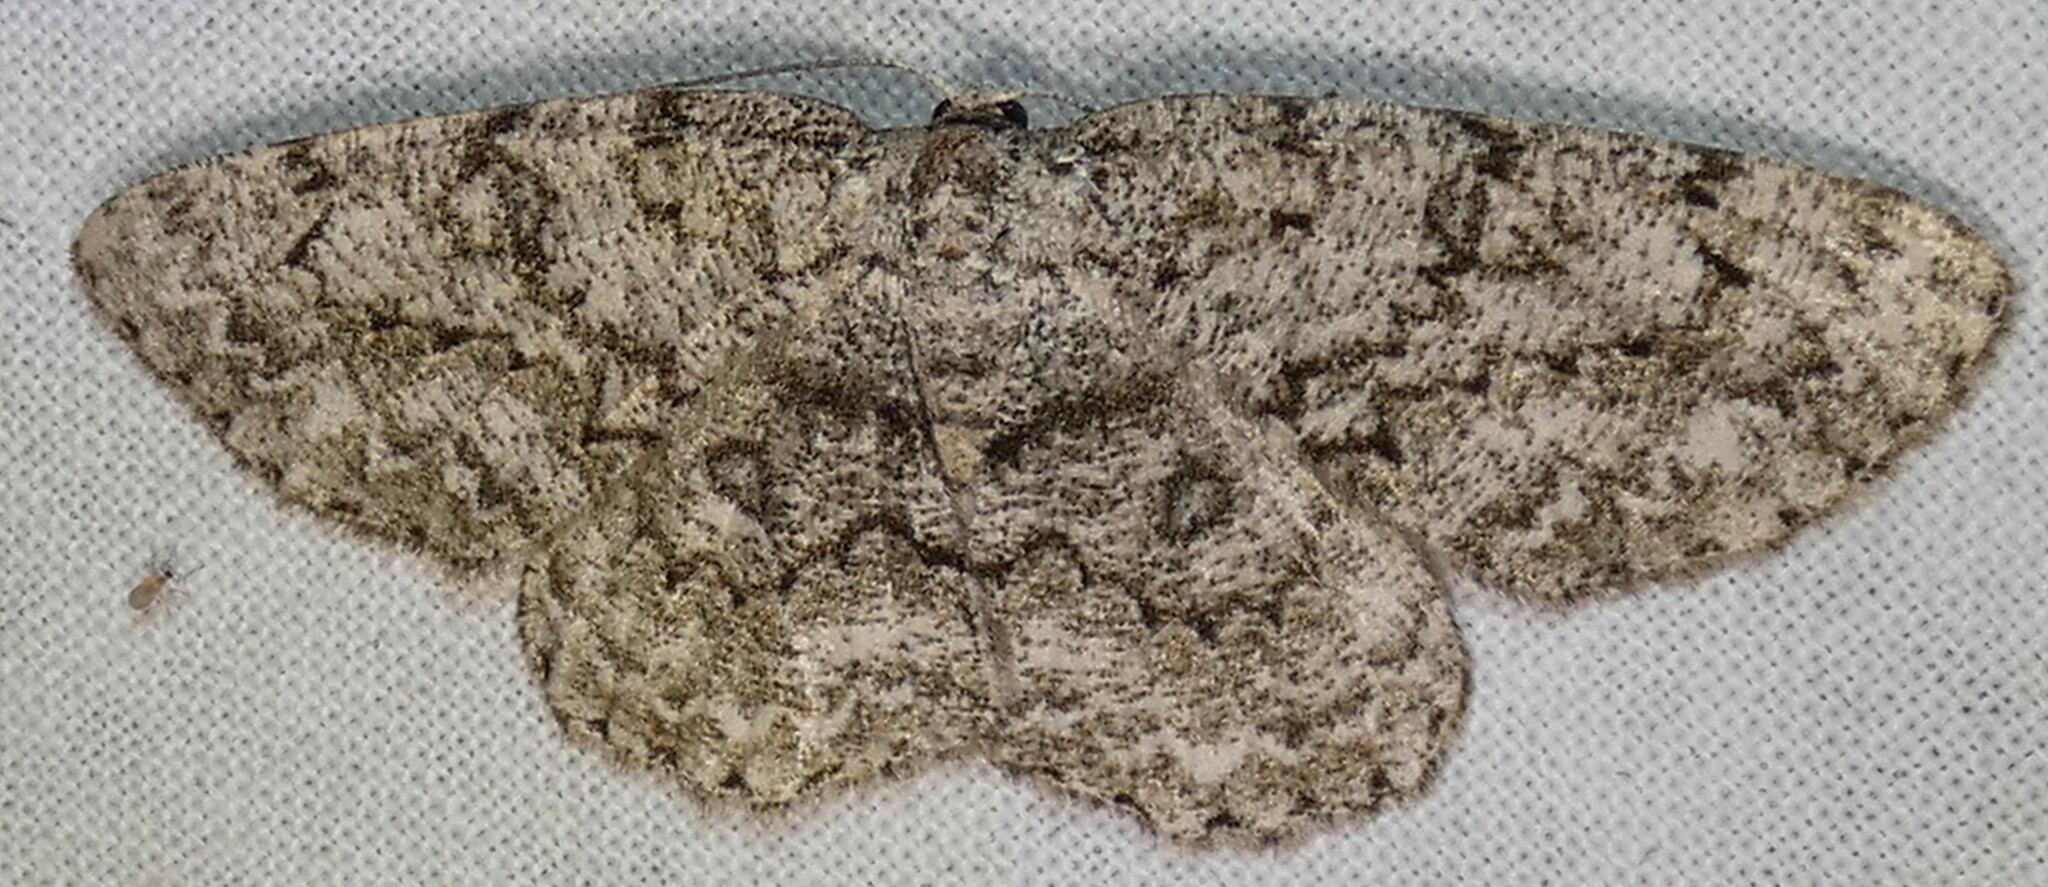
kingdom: Animalia
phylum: Arthropoda
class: Insecta
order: Lepidoptera
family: Geometridae
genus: Hypomecis
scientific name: Hypomecis umbrosaria
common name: Umber moth
